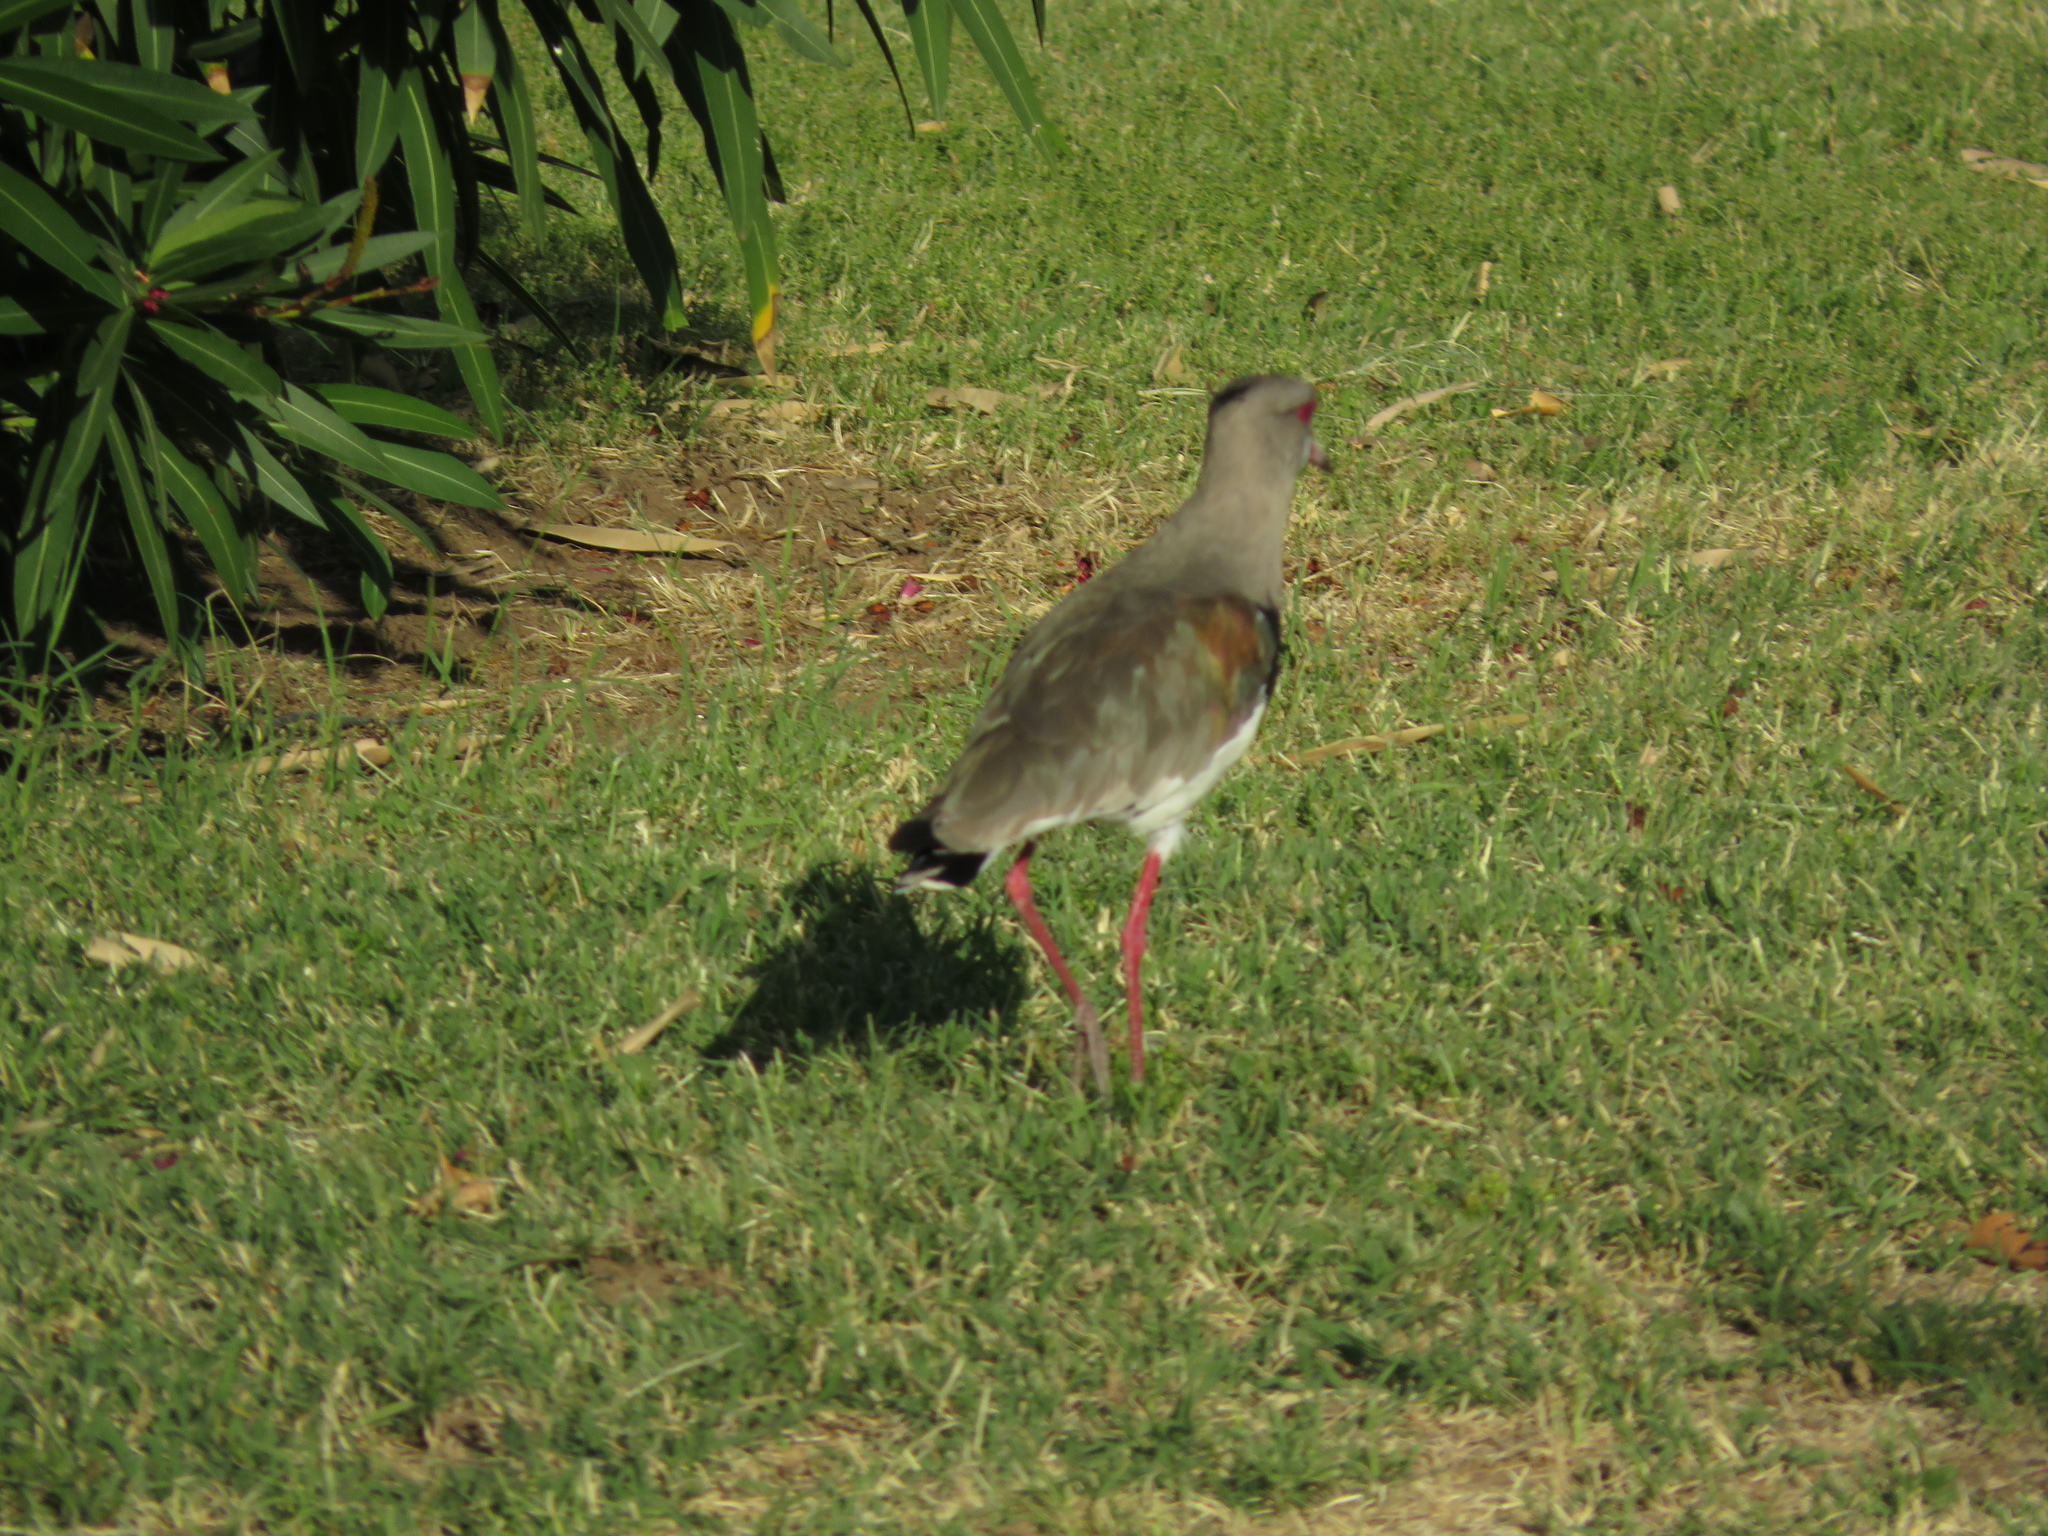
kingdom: Animalia
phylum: Chordata
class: Aves
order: Charadriiformes
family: Charadriidae
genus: Vanellus
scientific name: Vanellus chilensis
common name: Southern lapwing
